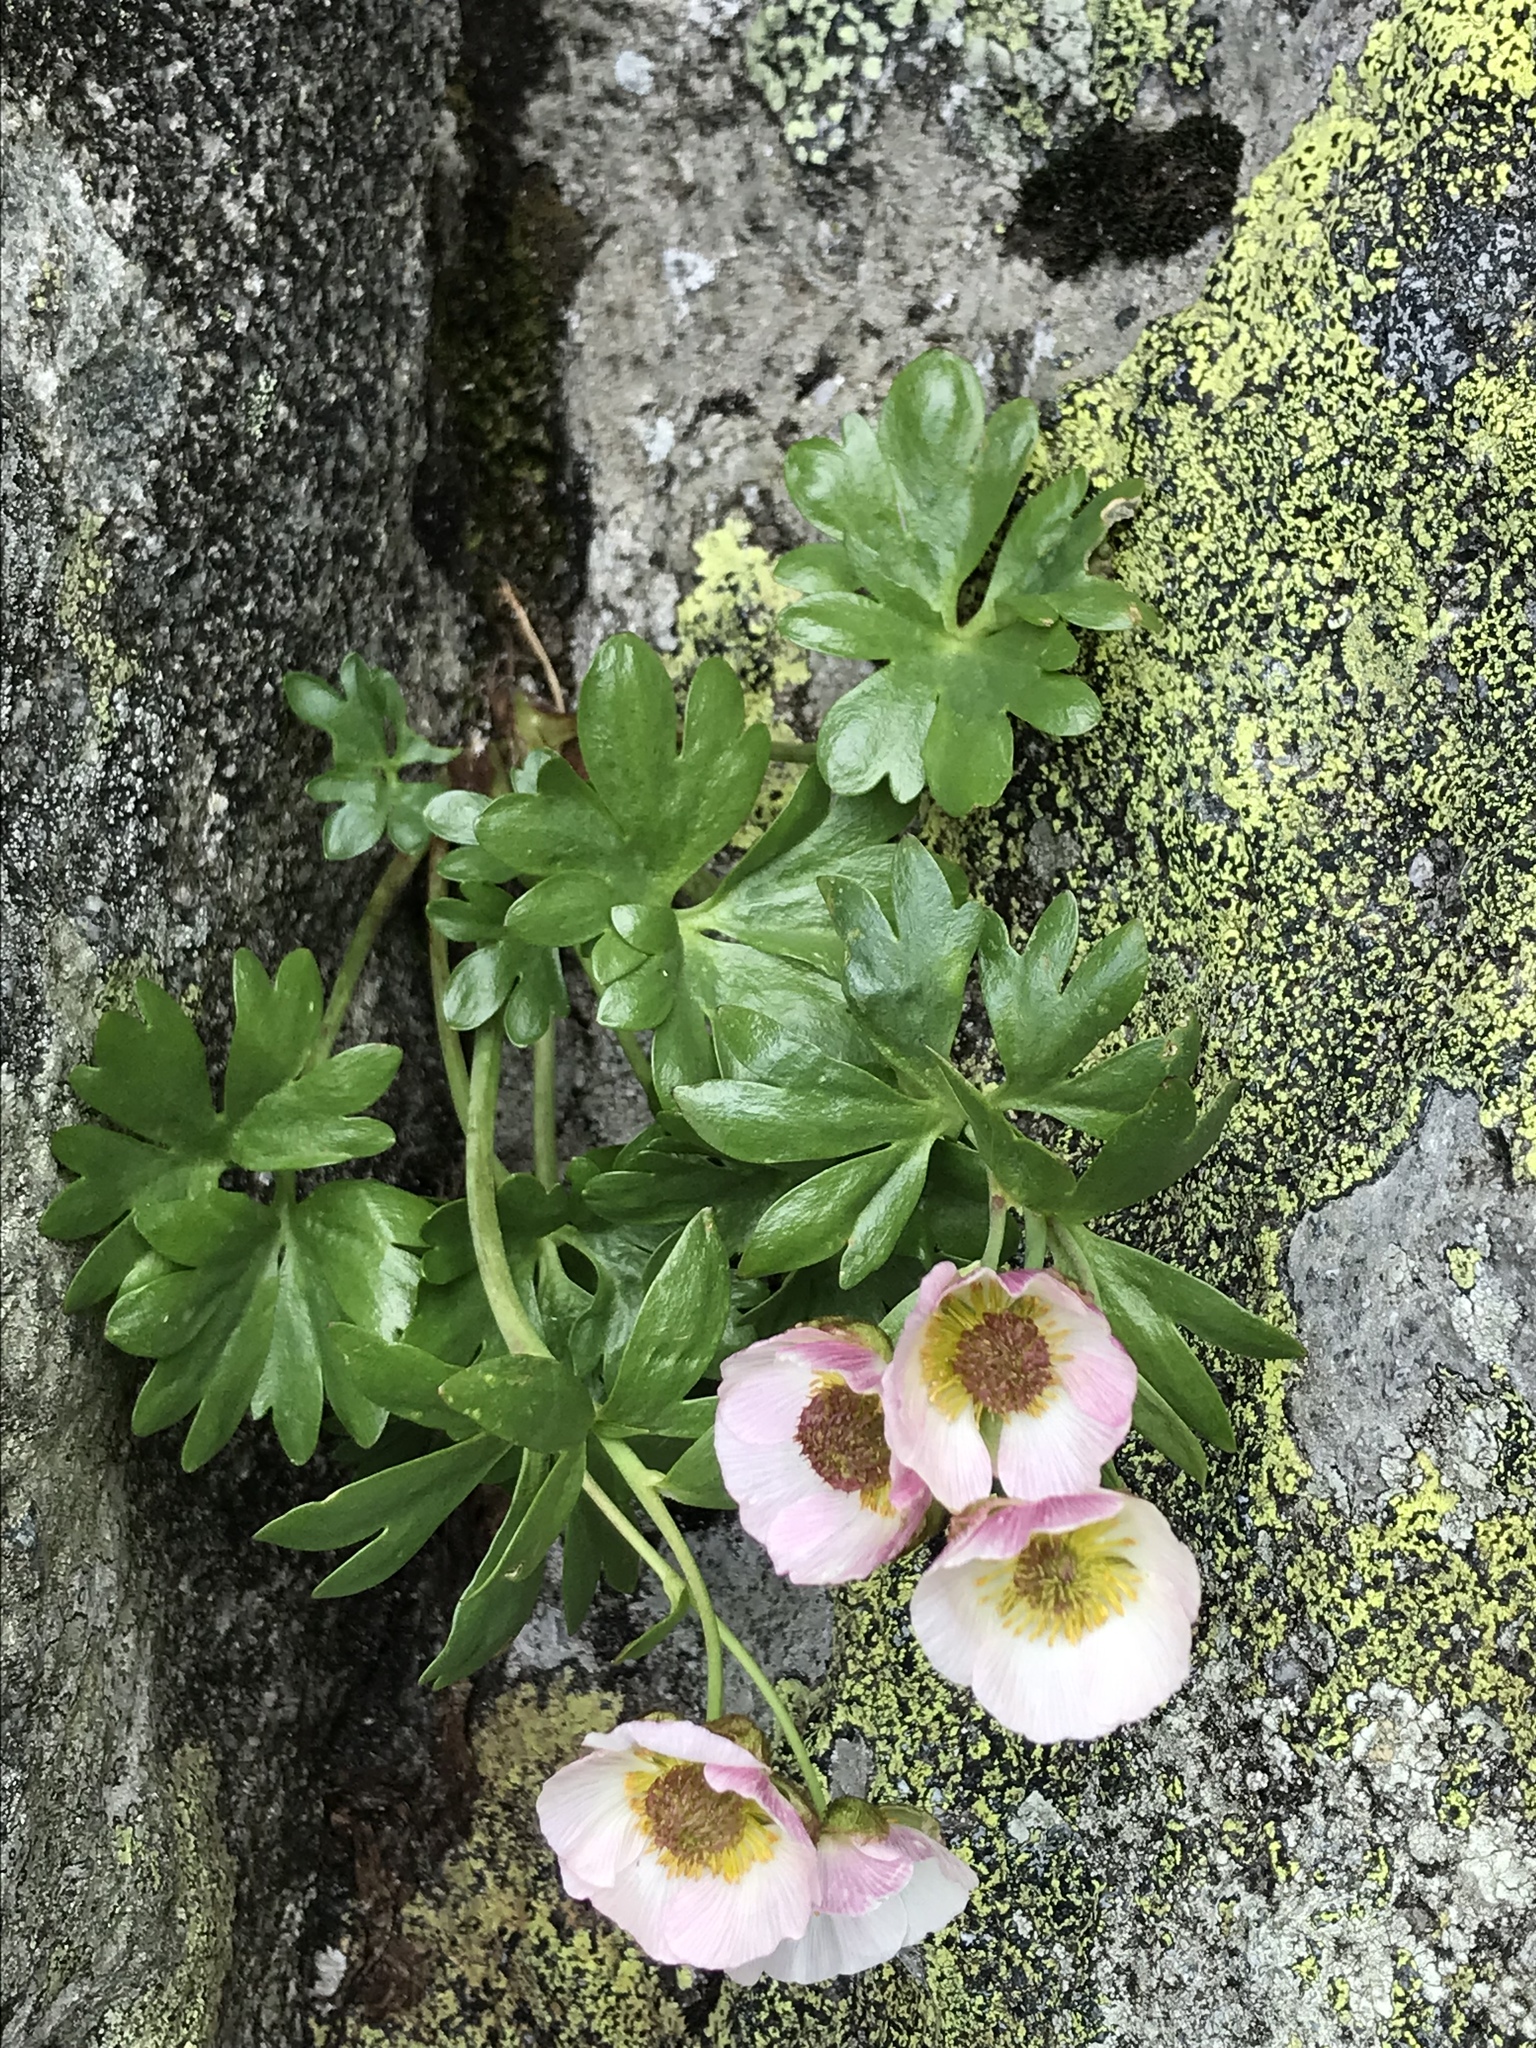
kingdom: Plantae
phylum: Tracheophyta
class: Magnoliopsida
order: Ranunculales
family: Ranunculaceae
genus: Ranunculus
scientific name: Ranunculus glacialis
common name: Glacier buttercup
